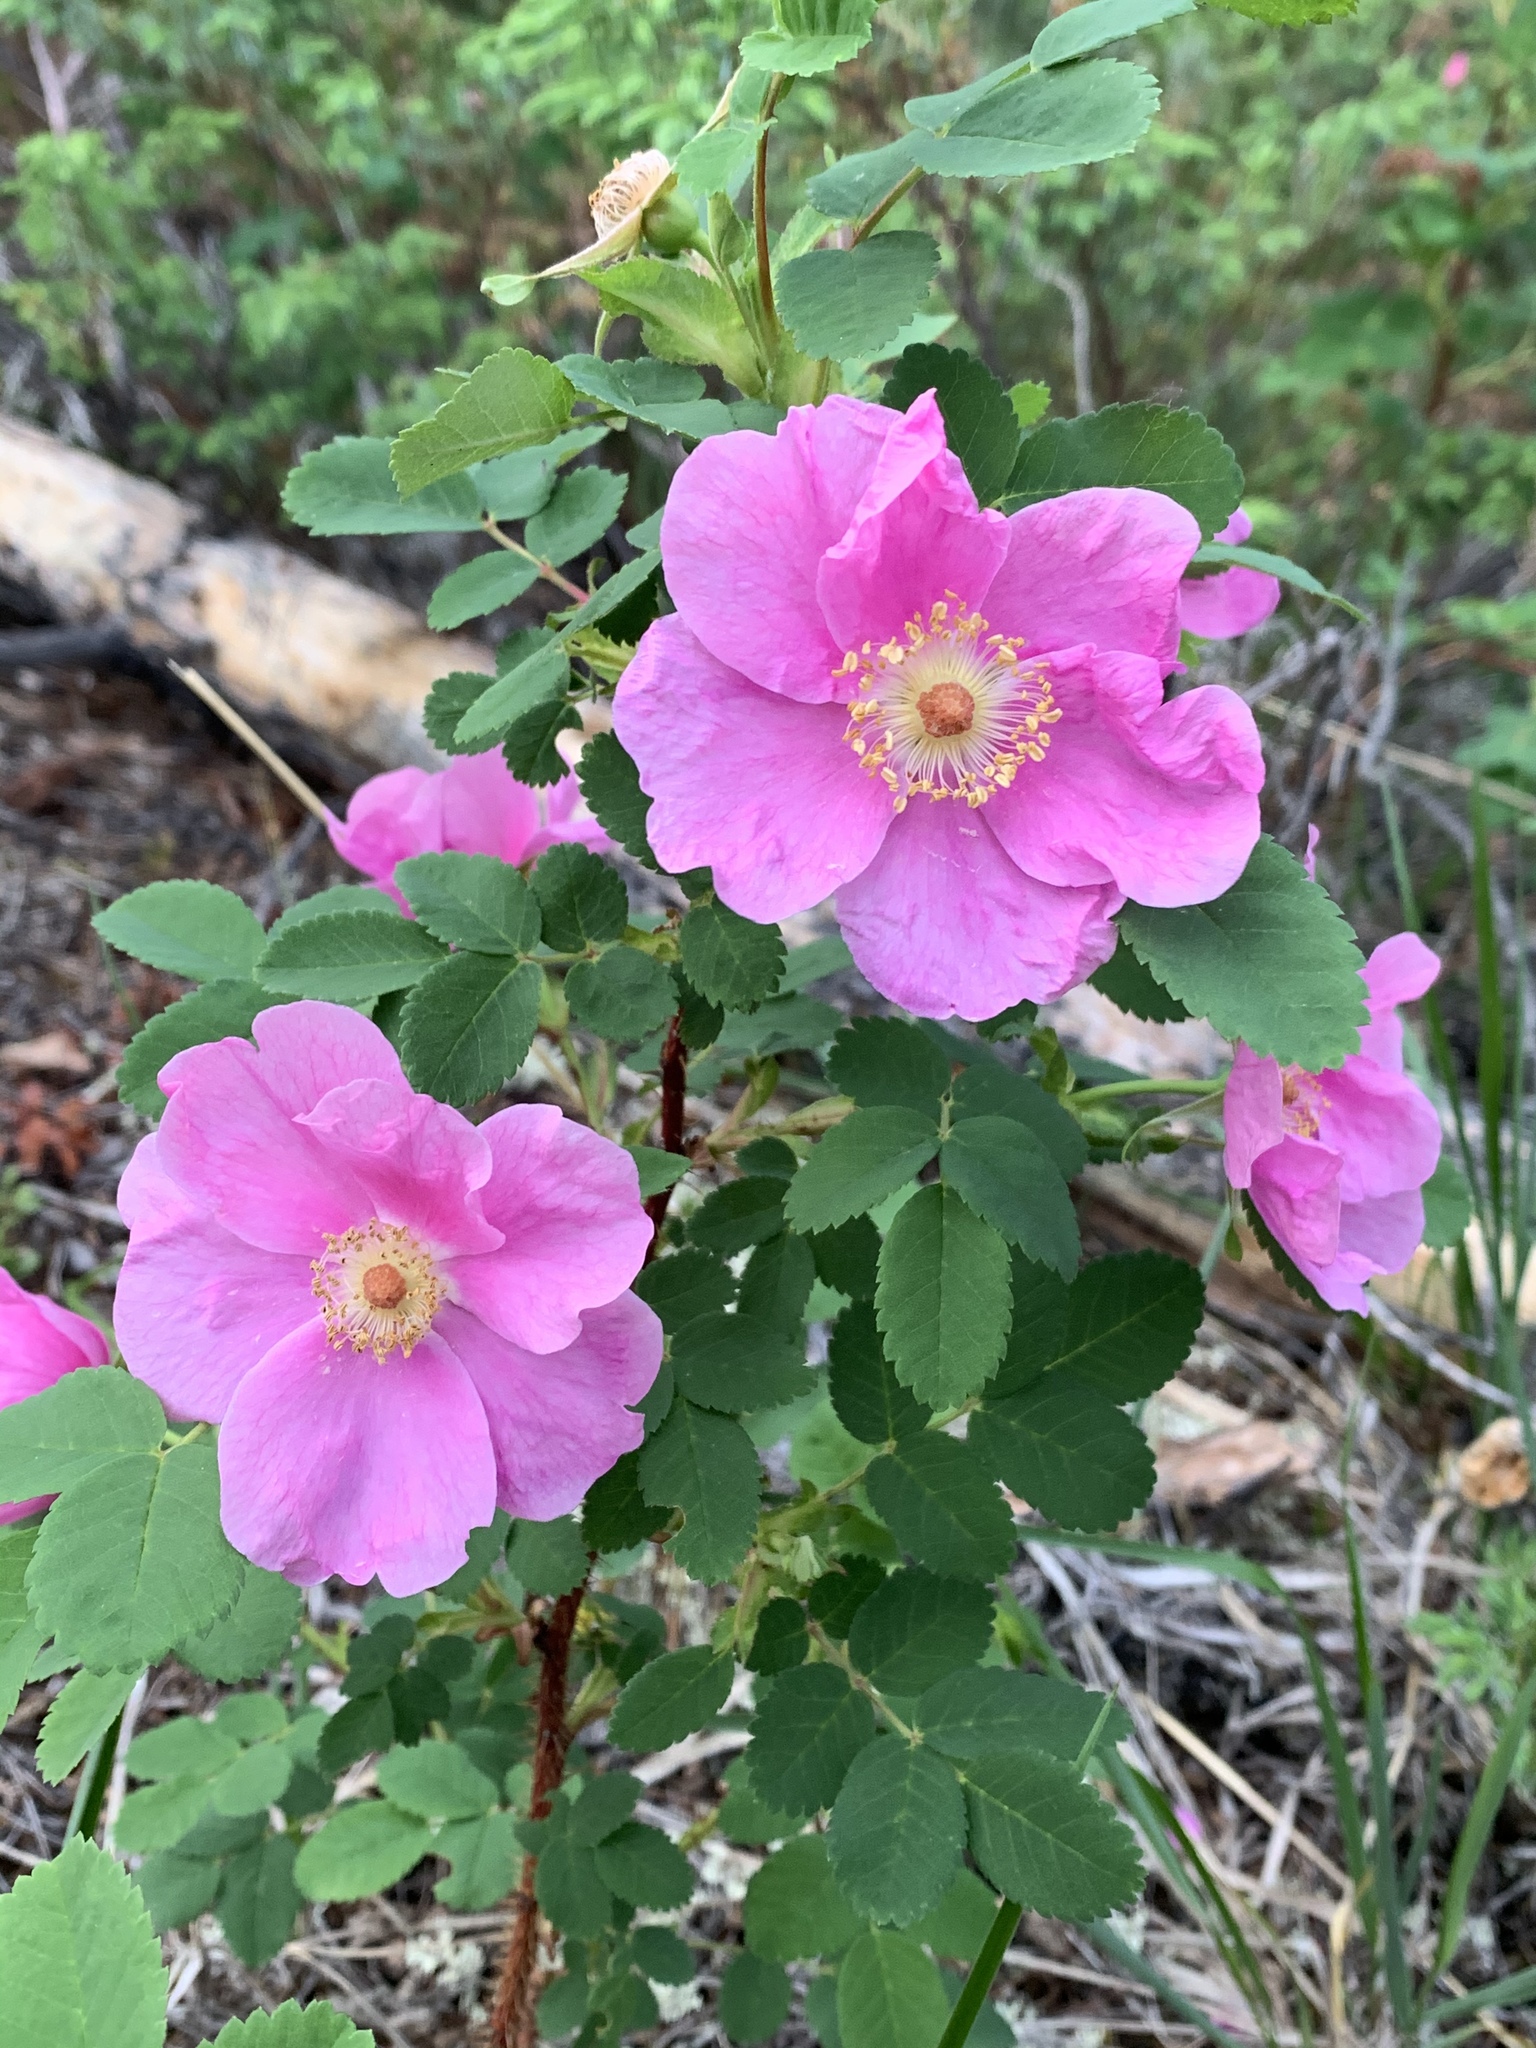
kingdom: Plantae
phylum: Tracheophyta
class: Magnoliopsida
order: Rosales
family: Rosaceae
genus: Rosa
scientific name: Rosa acicularis
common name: Prickly rose
